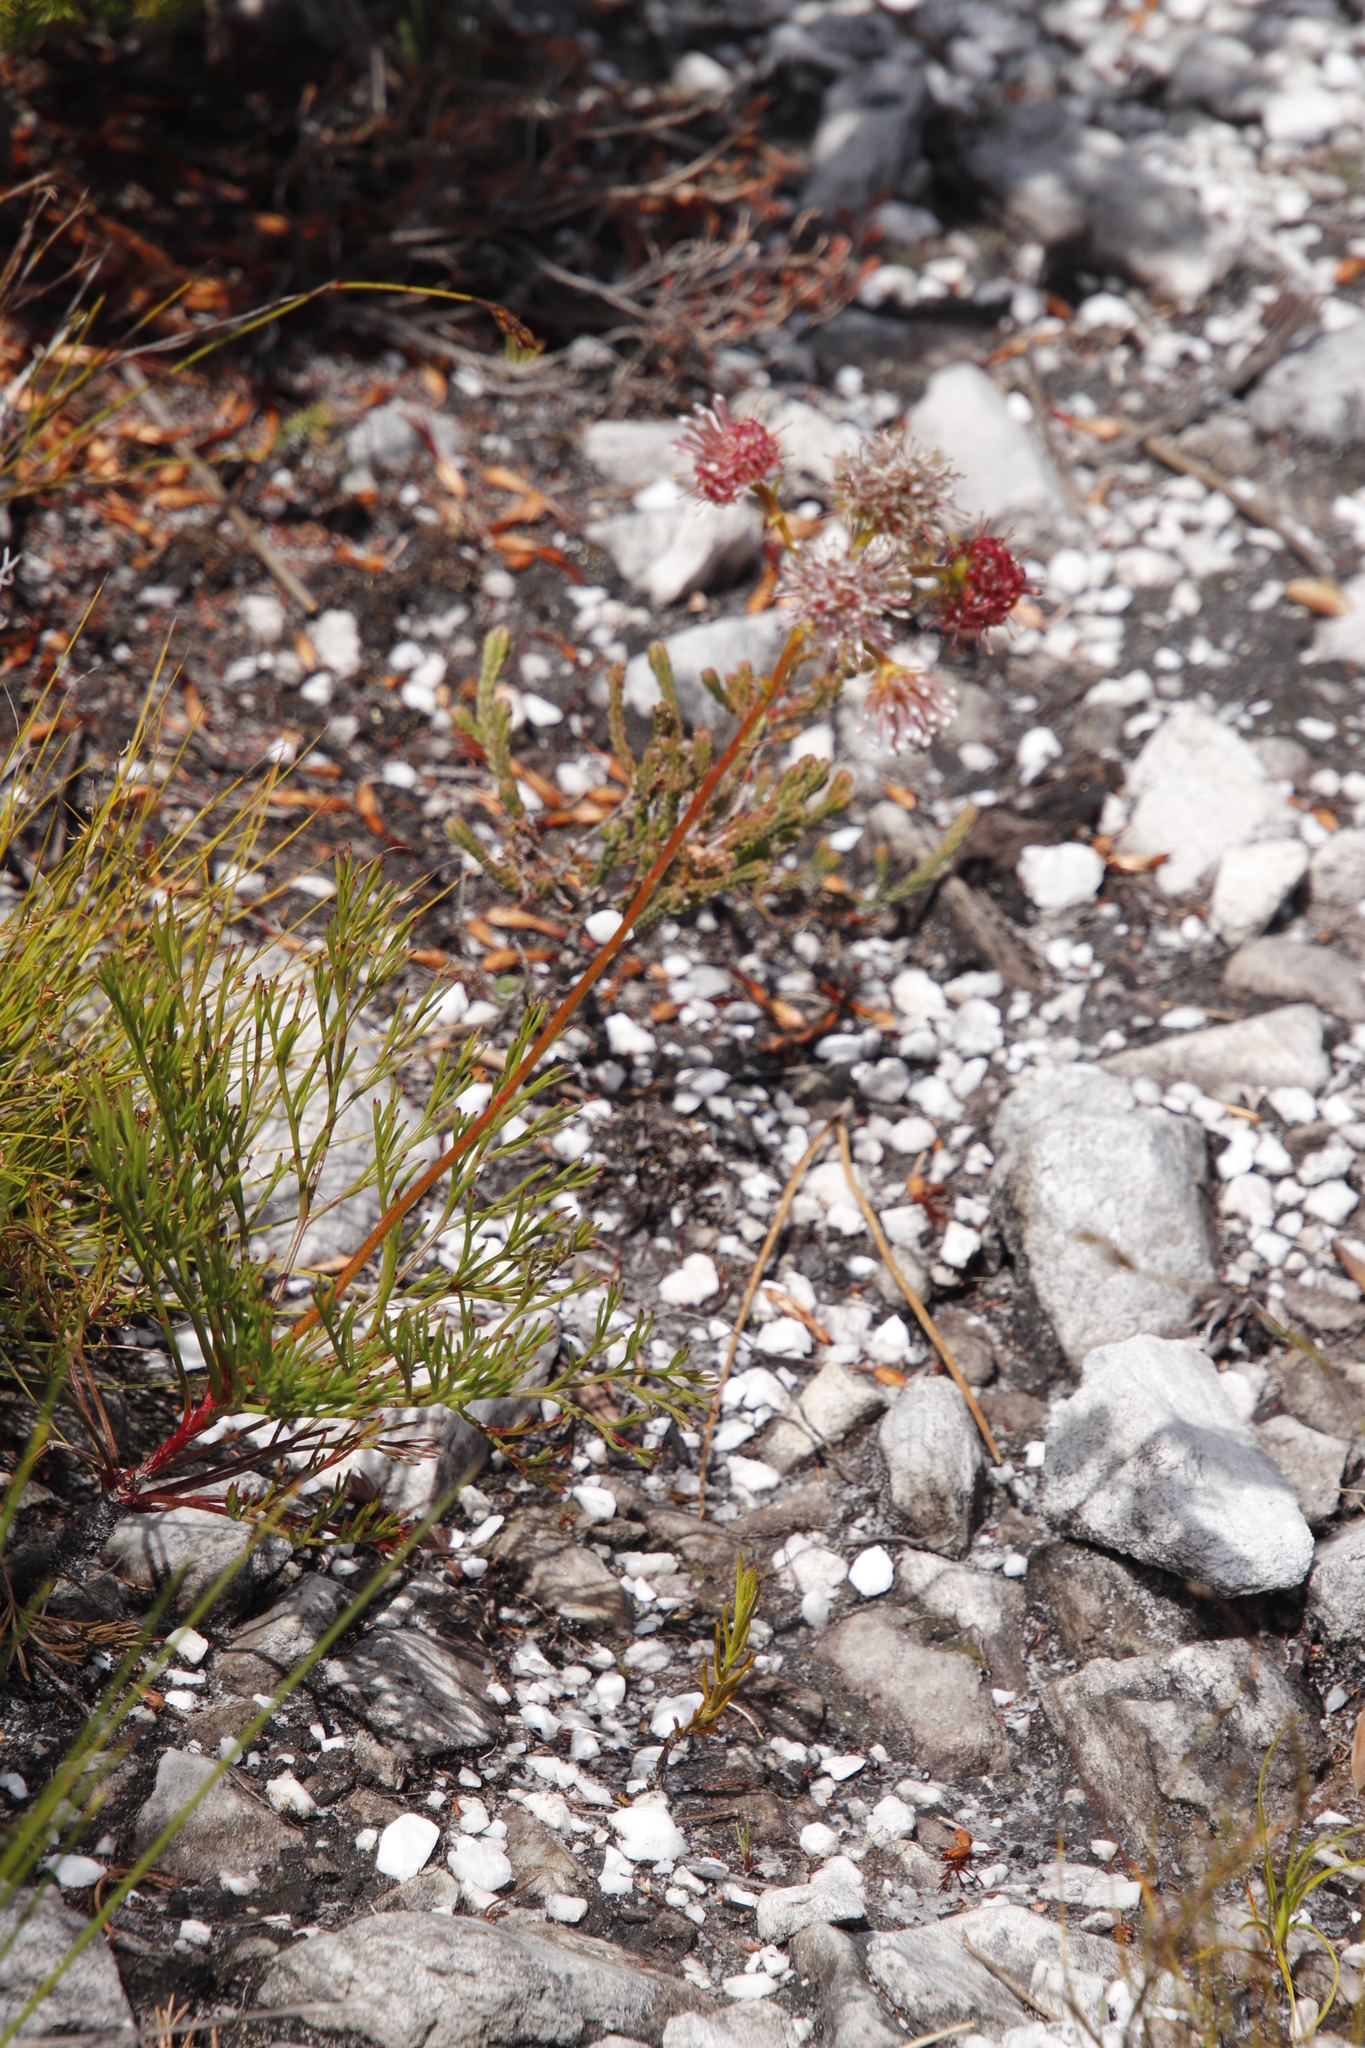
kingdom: Plantae
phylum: Tracheophyta
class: Magnoliopsida
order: Proteales
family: Proteaceae
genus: Serruria
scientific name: Serruria elongata
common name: Long-stalk spiderhead
